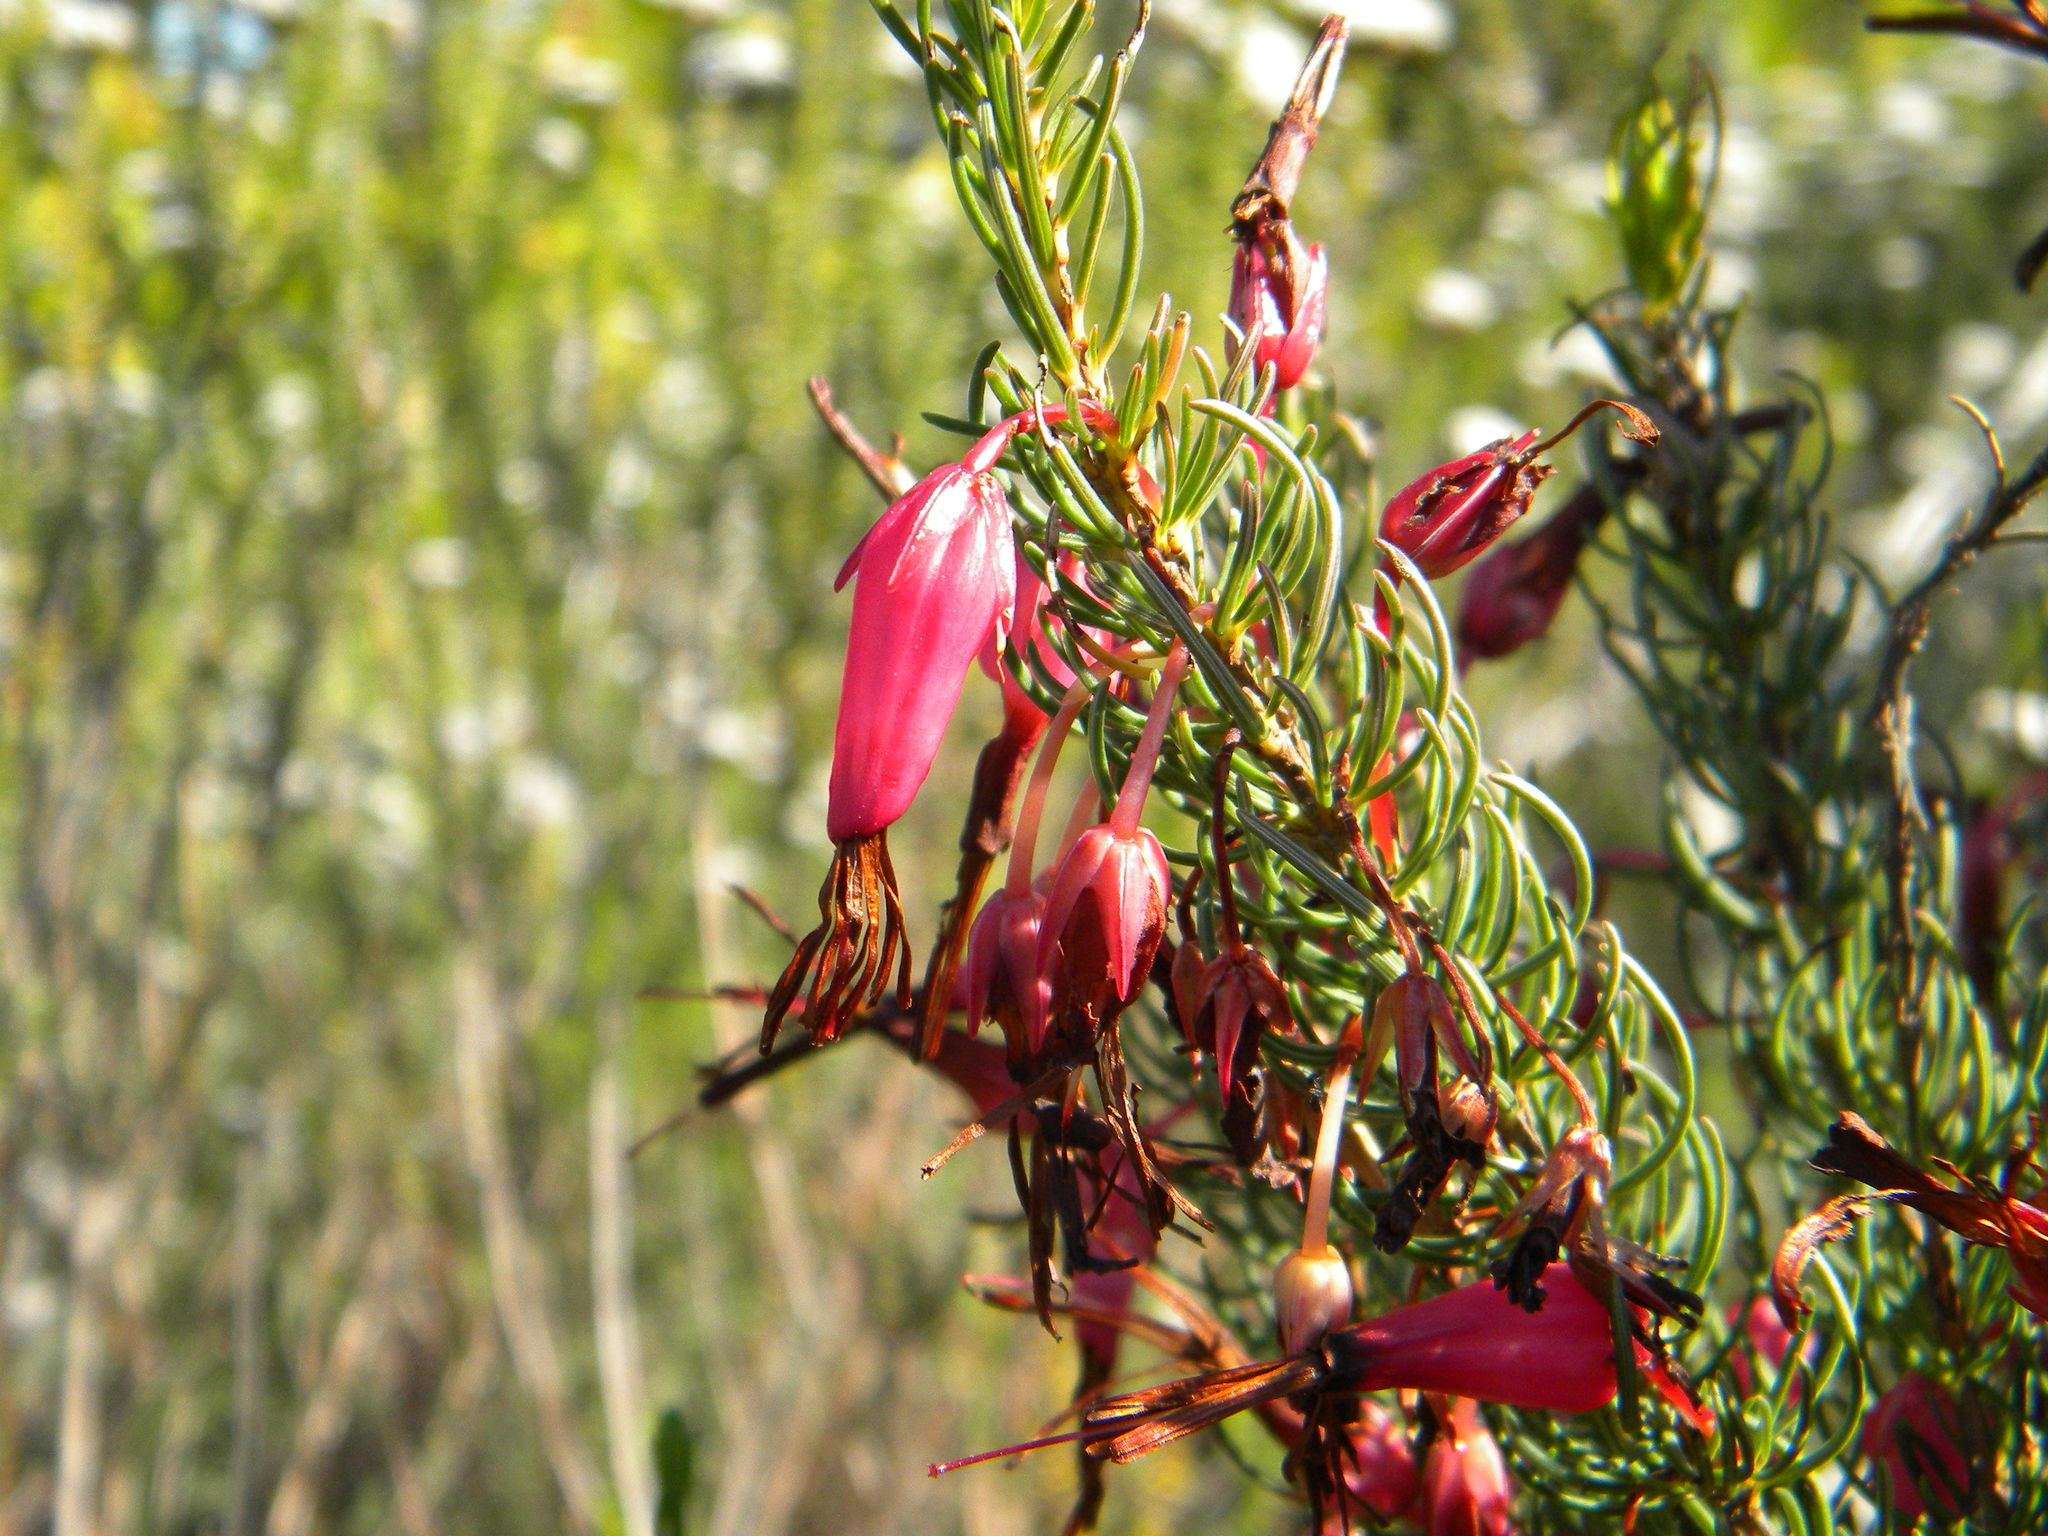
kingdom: Plantae
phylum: Tracheophyta
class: Magnoliopsida
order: Ericales
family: Ericaceae
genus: Erica
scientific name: Erica plukenetii
